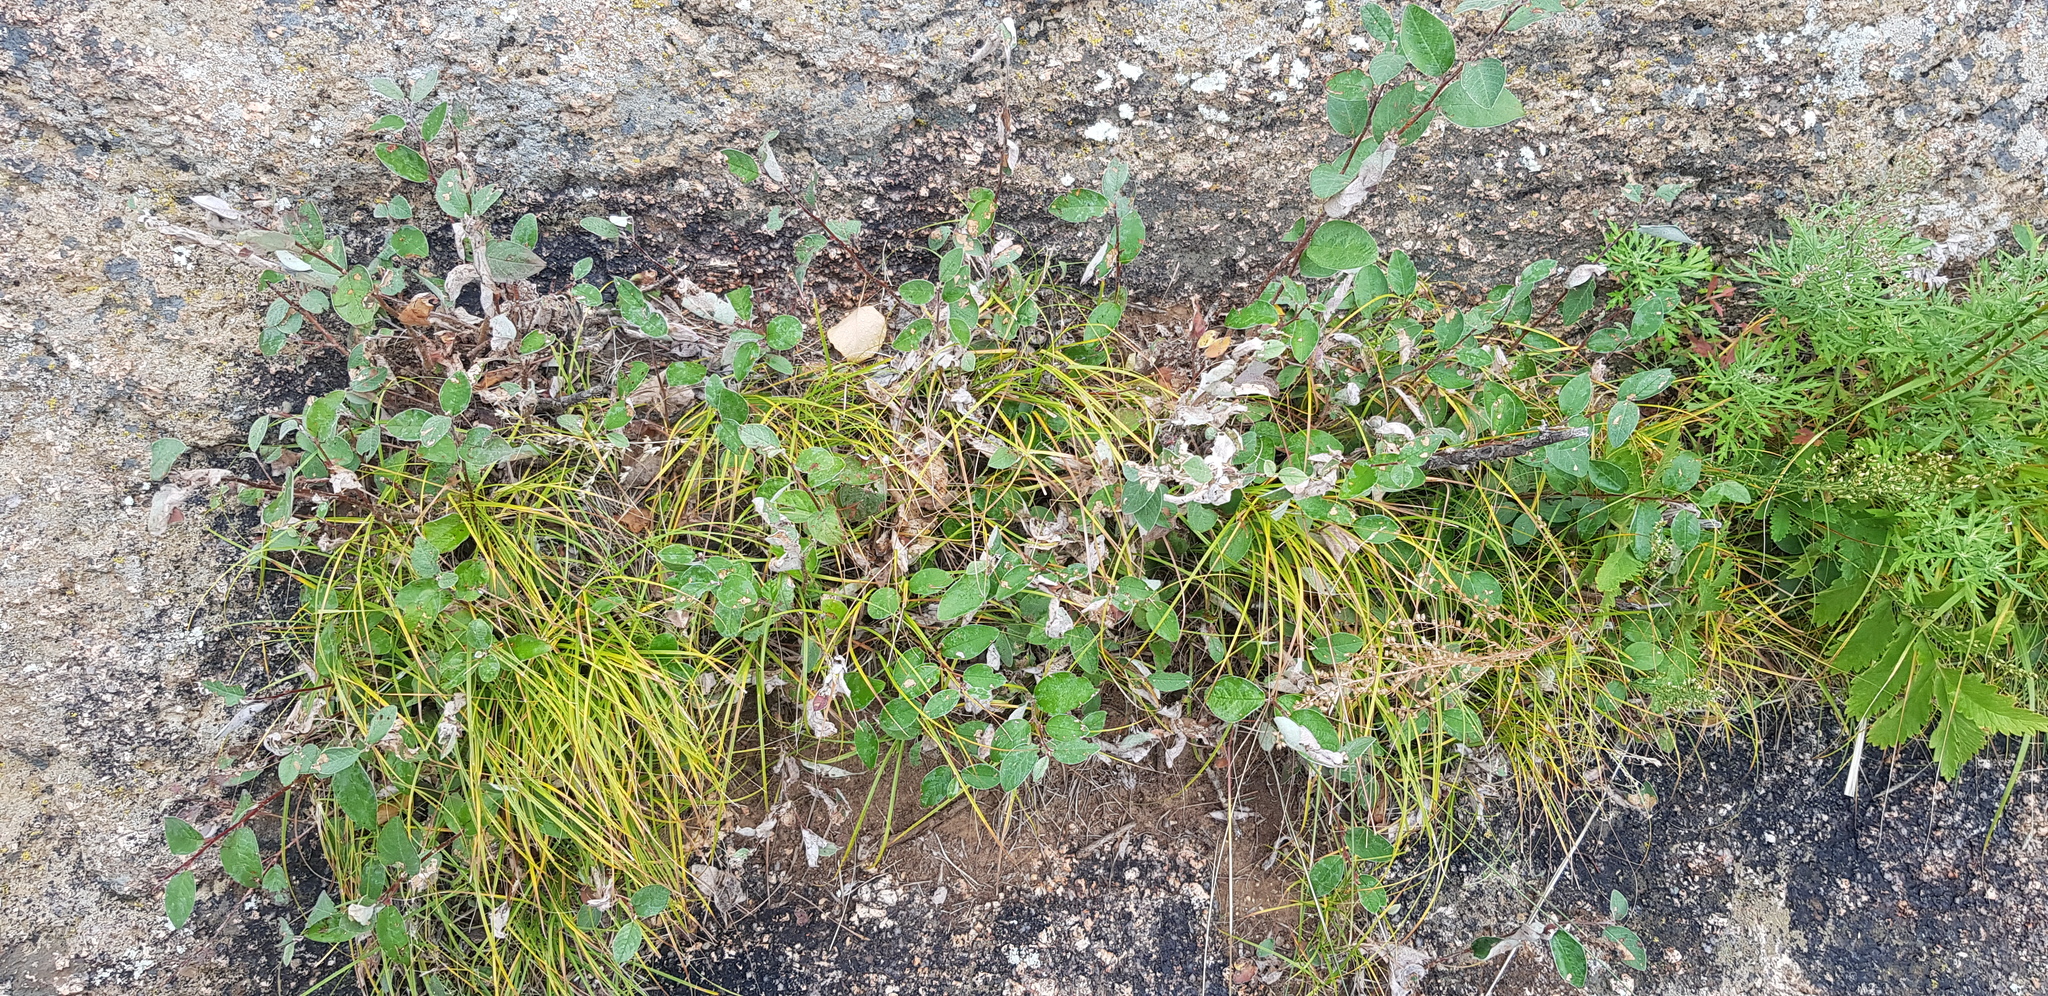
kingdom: Plantae
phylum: Tracheophyta
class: Magnoliopsida
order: Rosales
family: Rosaceae
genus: Cotoneaster
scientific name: Cotoneaster melanocarpus
